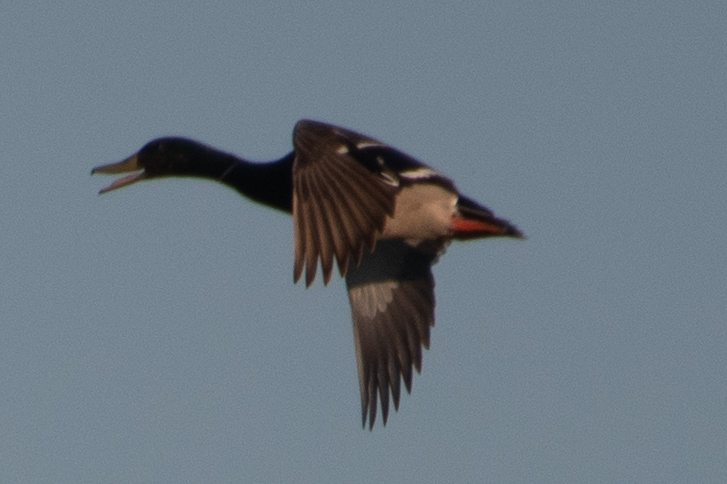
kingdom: Animalia
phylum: Chordata
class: Aves
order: Anseriformes
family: Anatidae
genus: Anas
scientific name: Anas platyrhynchos
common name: Mallard
